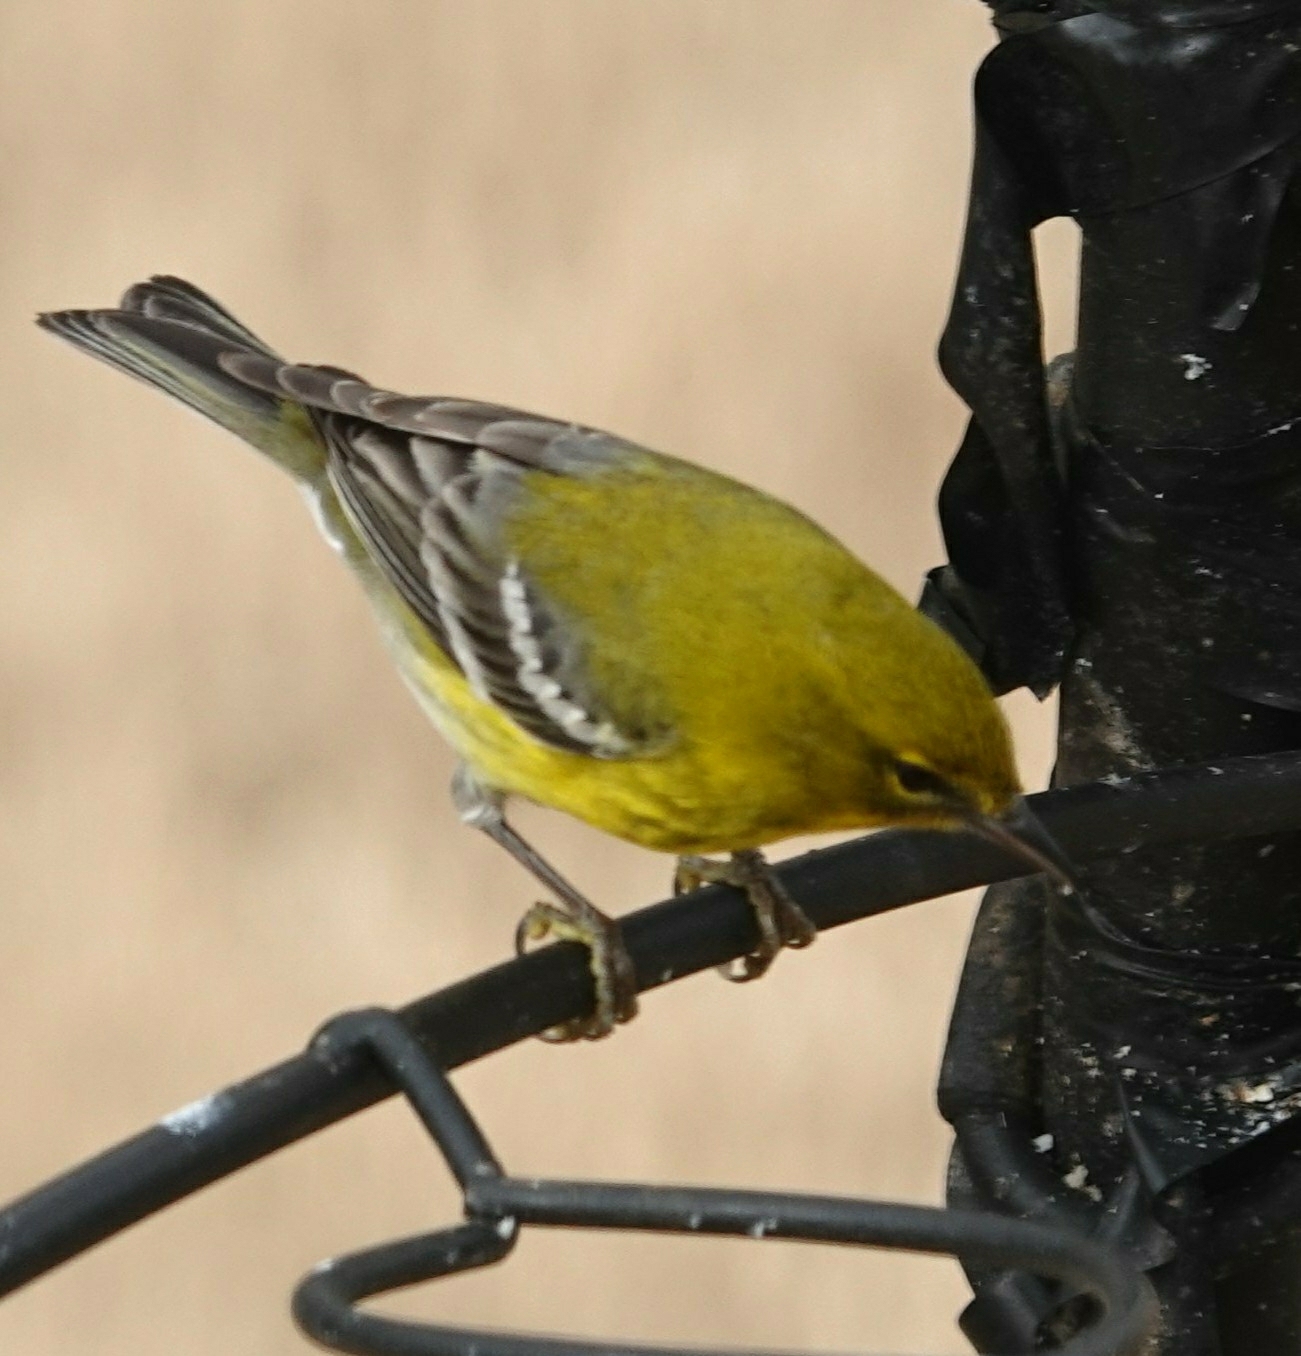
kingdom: Animalia
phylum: Chordata
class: Aves
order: Passeriformes
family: Parulidae
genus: Setophaga
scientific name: Setophaga pinus
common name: Pine warbler
